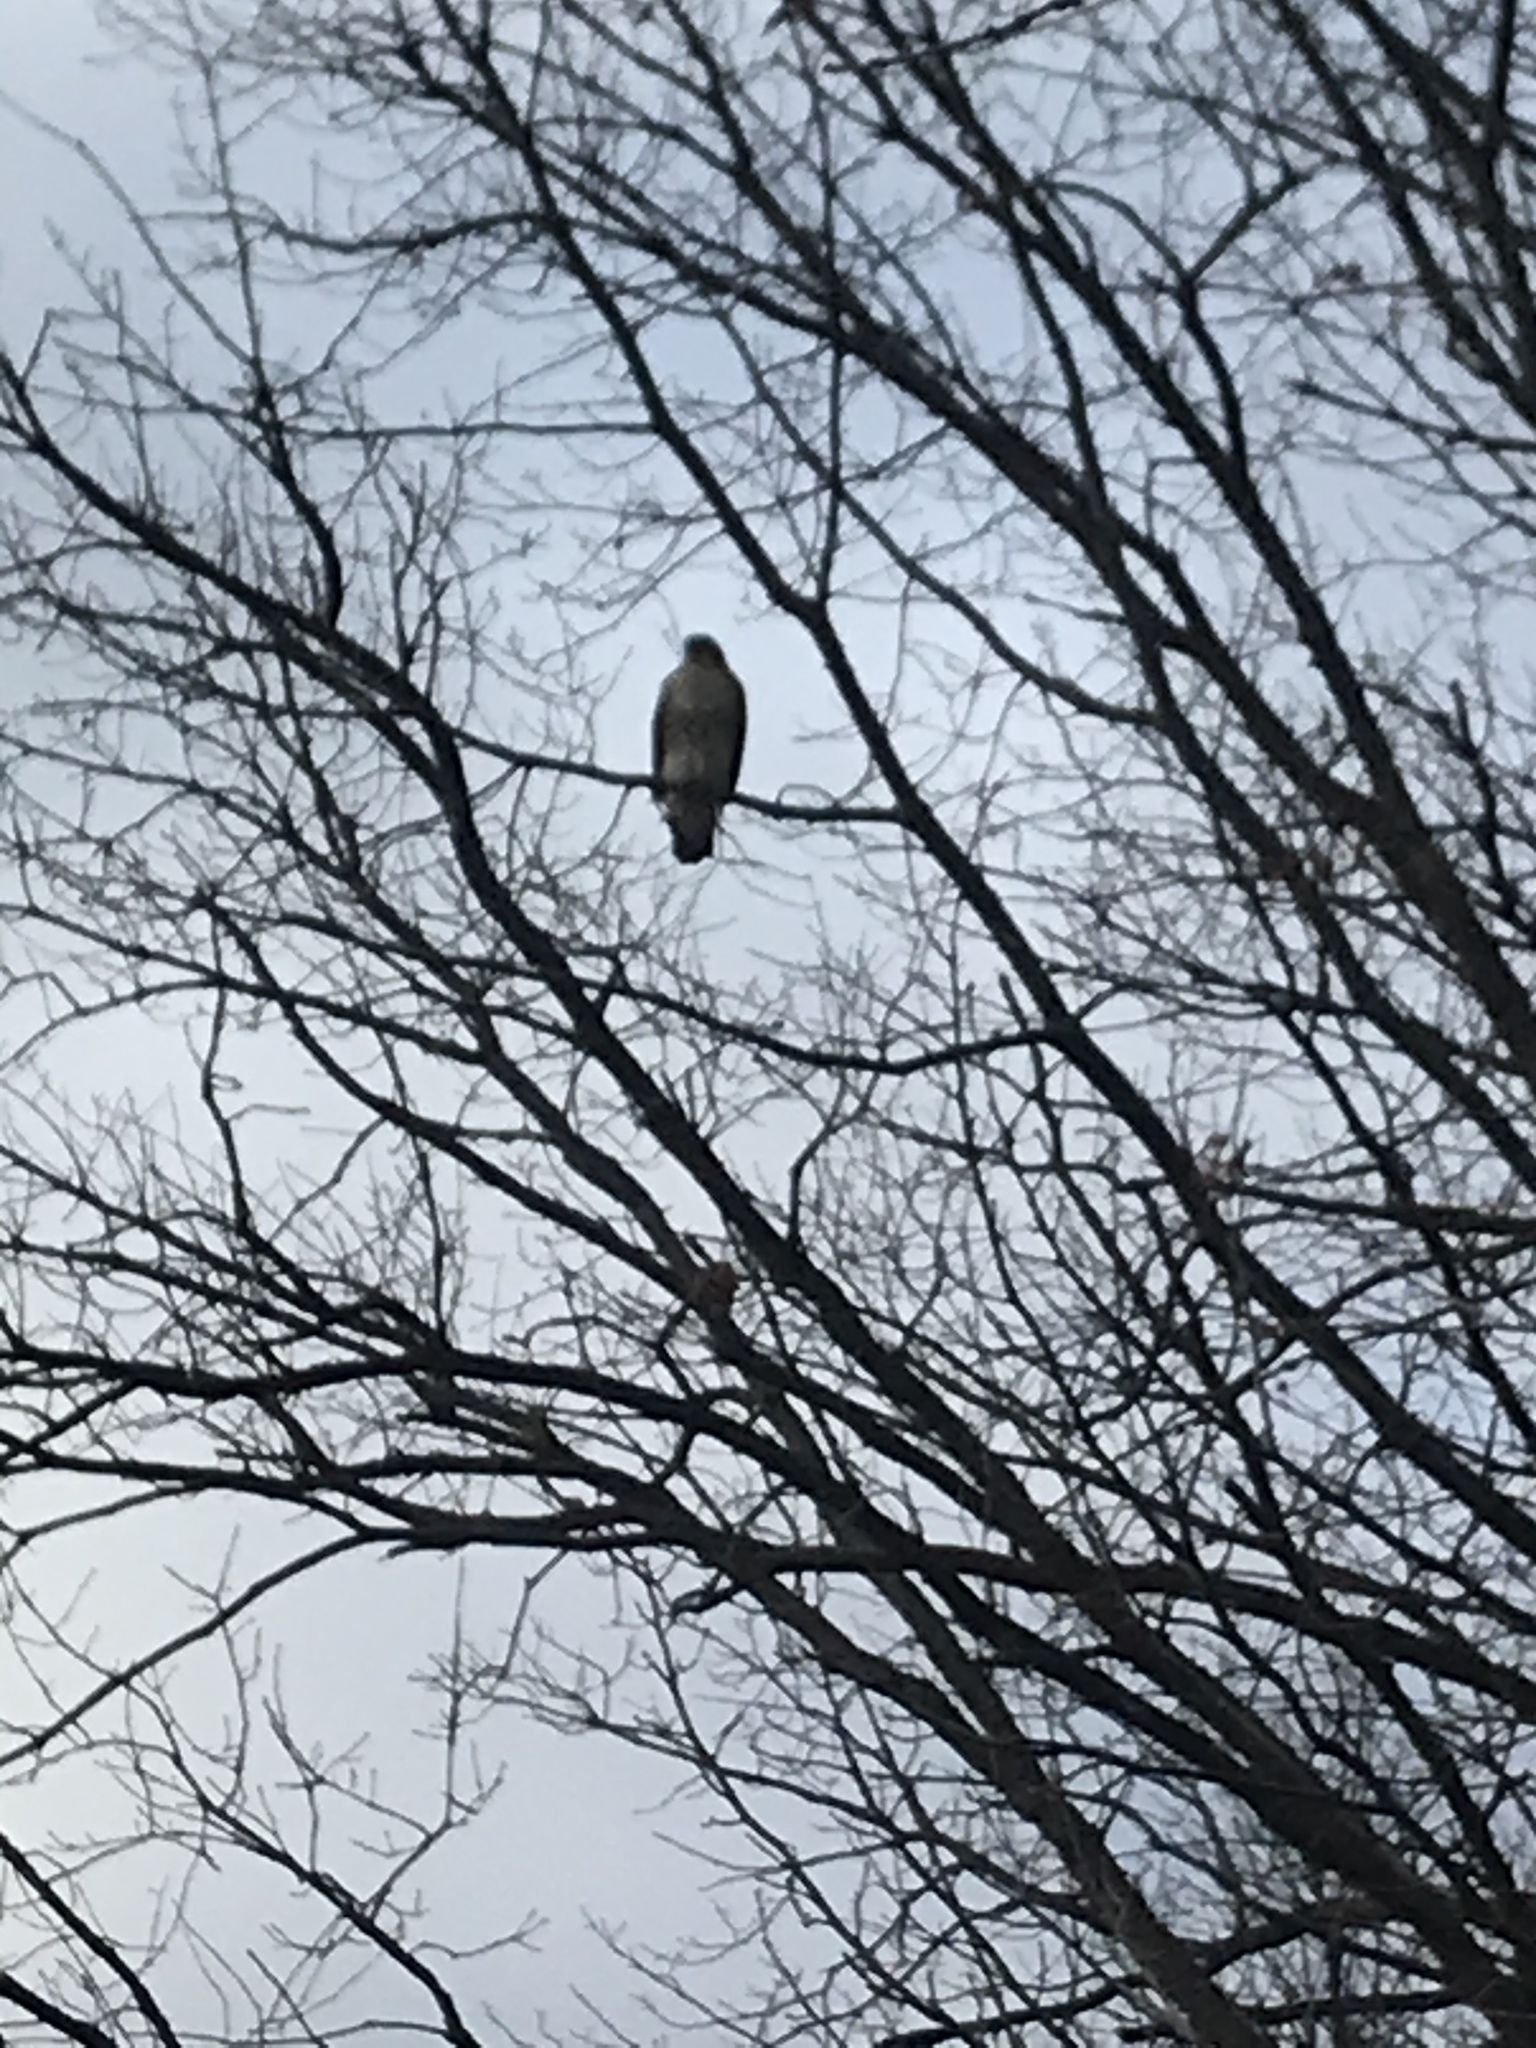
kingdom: Animalia
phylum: Chordata
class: Aves
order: Accipitriformes
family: Accipitridae
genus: Buteo
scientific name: Buteo jamaicensis
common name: Red-tailed hawk
